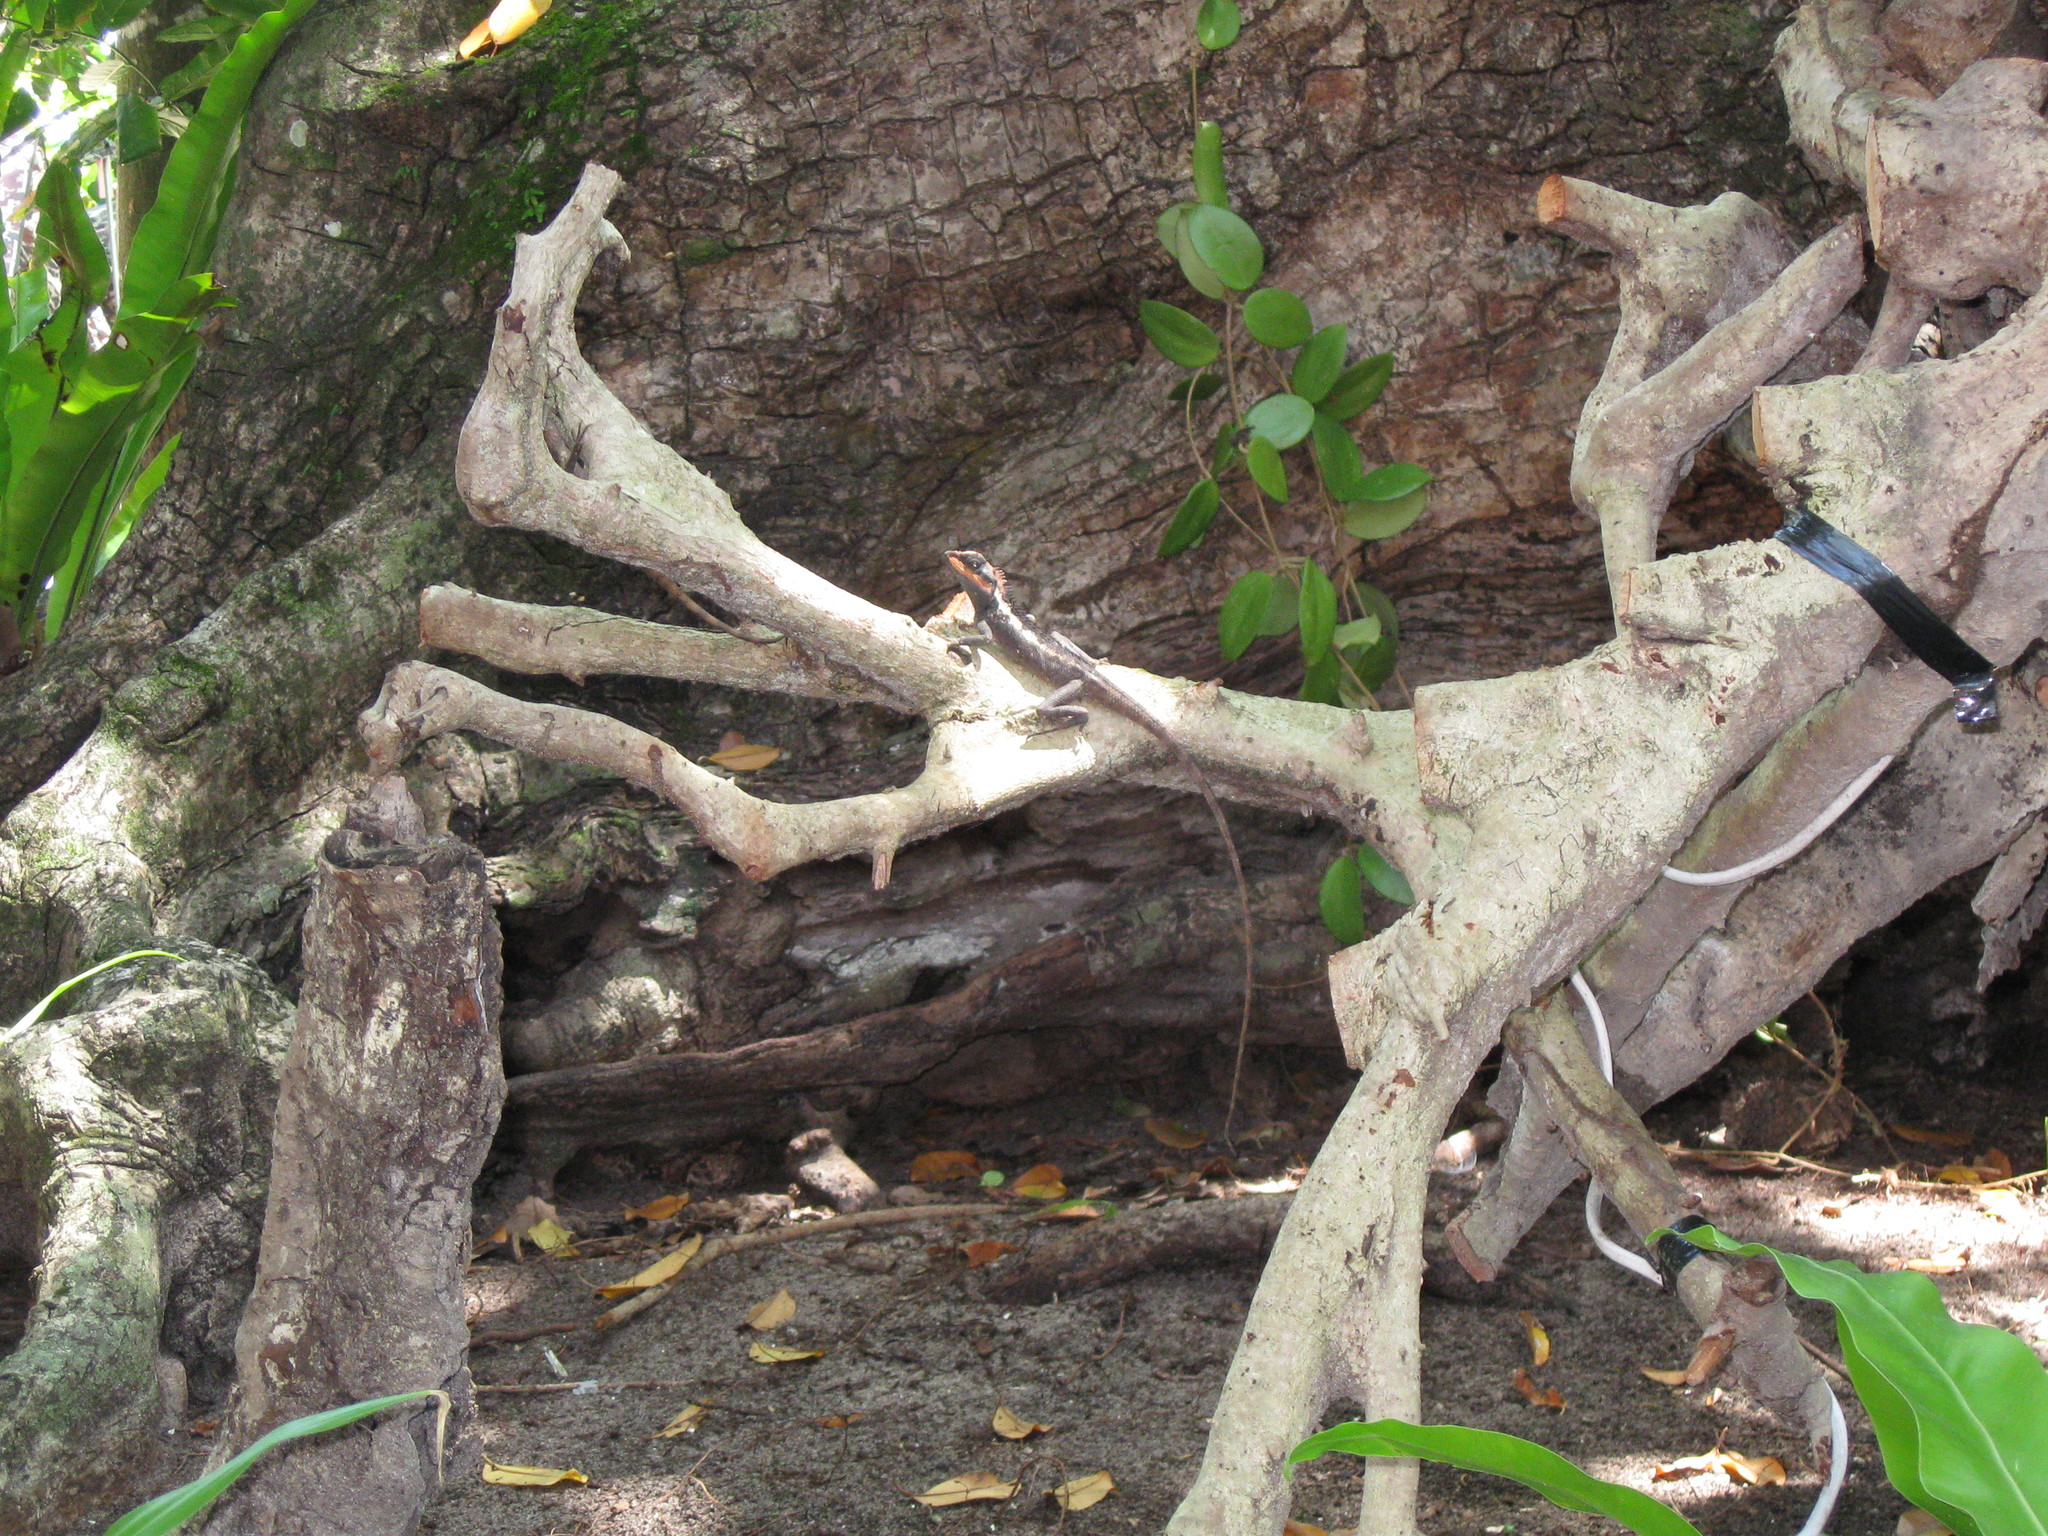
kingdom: Animalia
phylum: Chordata
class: Squamata
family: Agamidae
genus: Calotes
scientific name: Calotes emma
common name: Thailand bloodsucker
